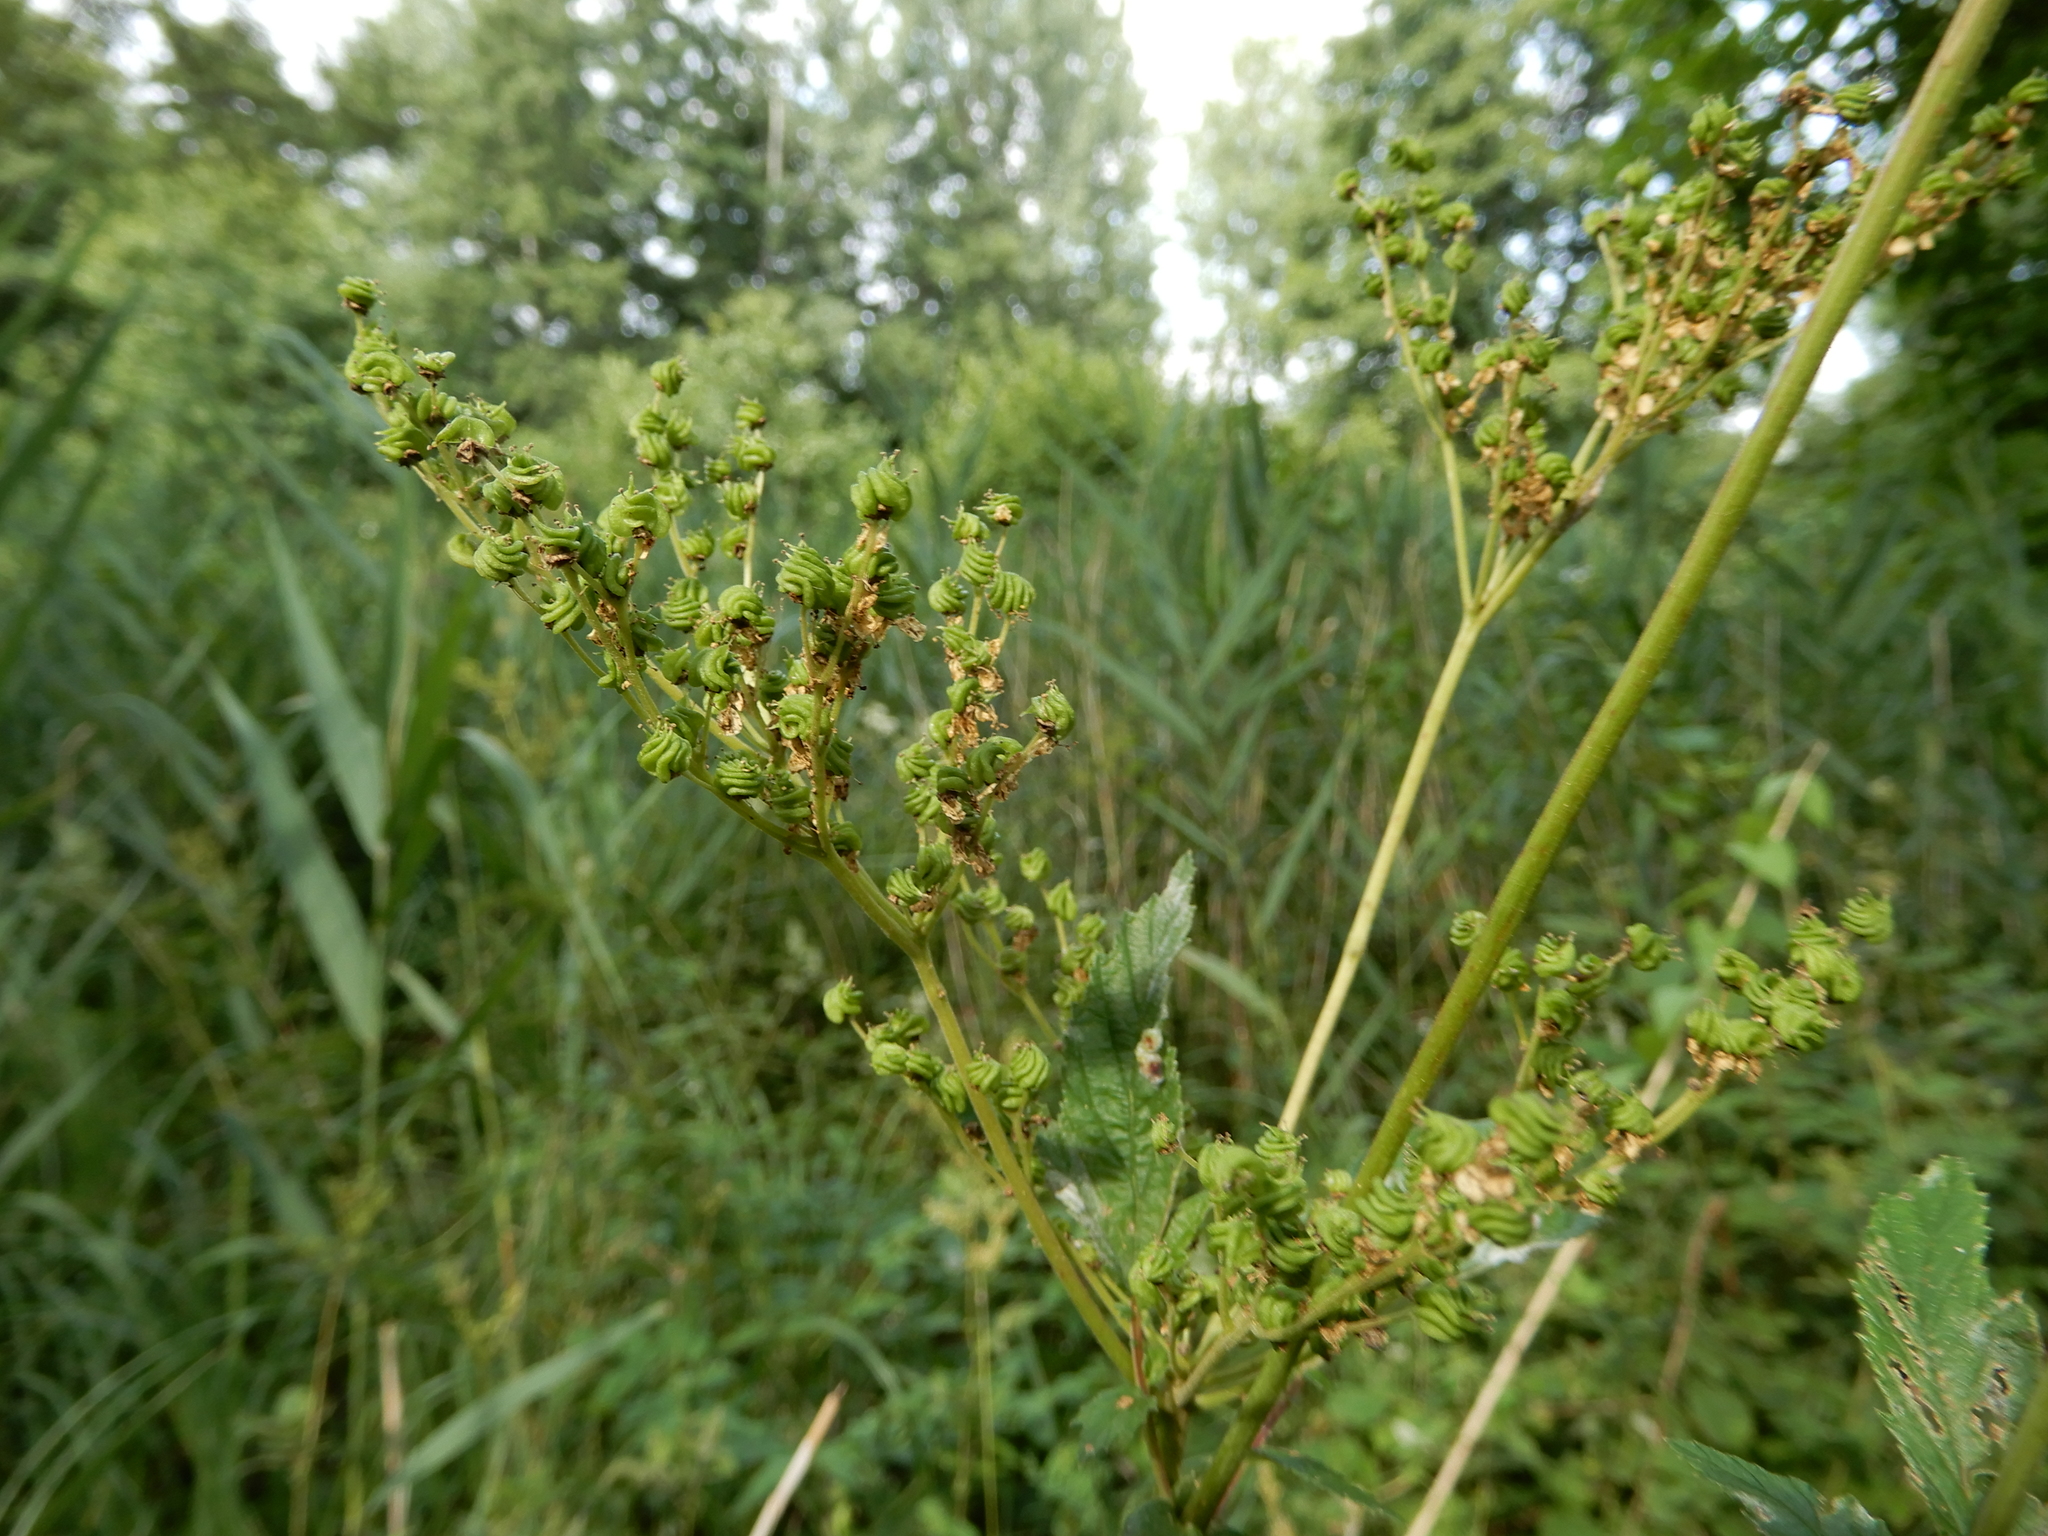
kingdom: Plantae
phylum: Tracheophyta
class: Magnoliopsida
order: Rosales
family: Rosaceae
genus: Filipendula
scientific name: Filipendula ulmaria
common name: Meadowsweet
